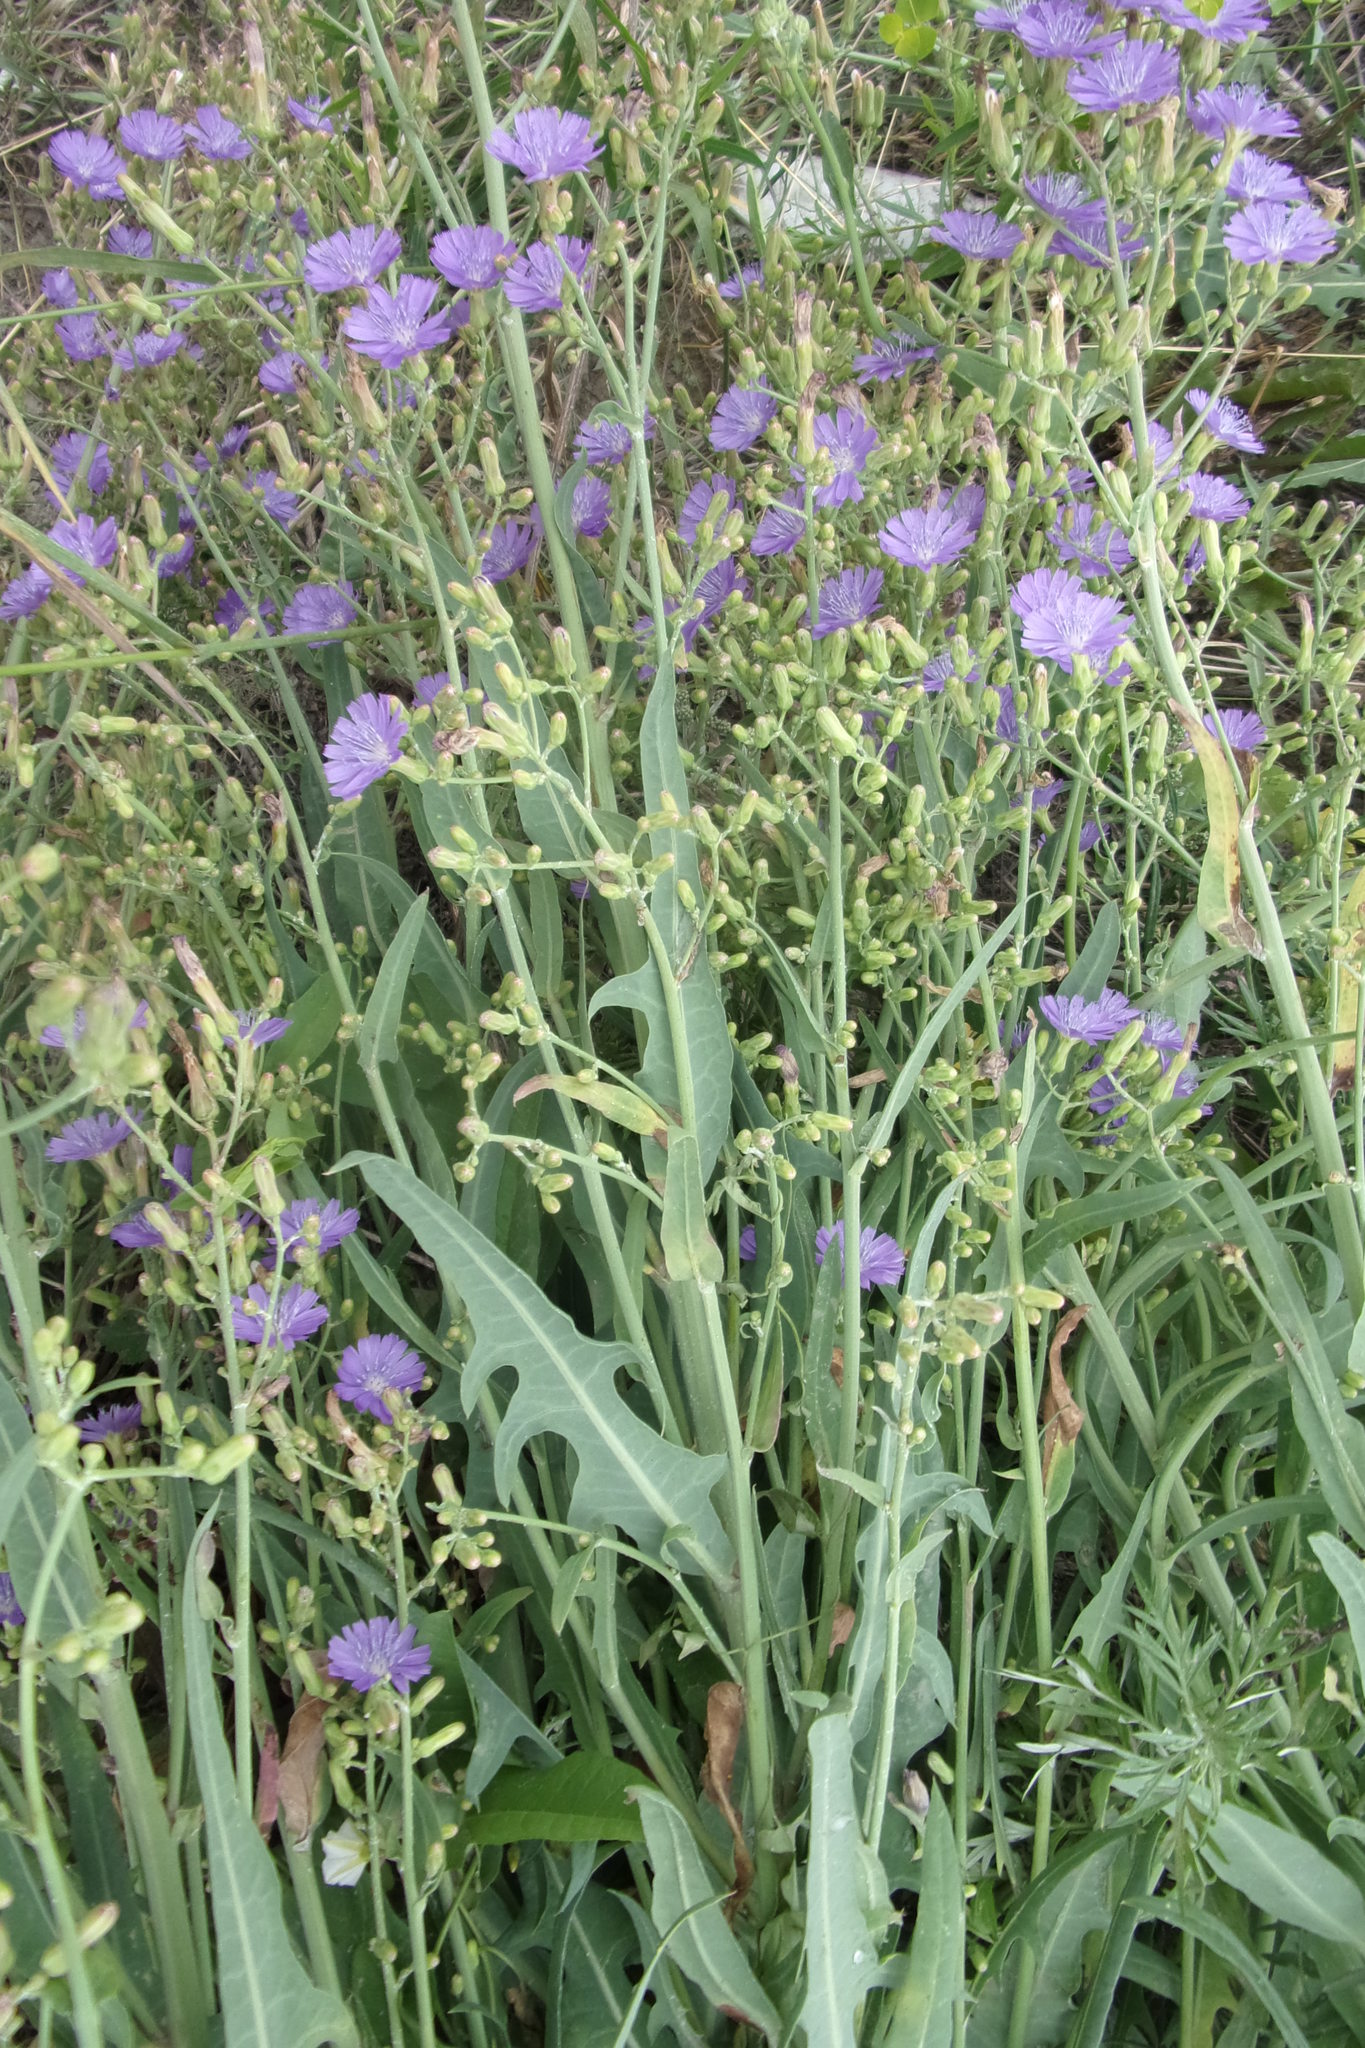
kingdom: Plantae
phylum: Tracheophyta
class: Magnoliopsida
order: Asterales
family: Asteraceae
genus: Lactuca
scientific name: Lactuca tatarica
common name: Blue lettuce
